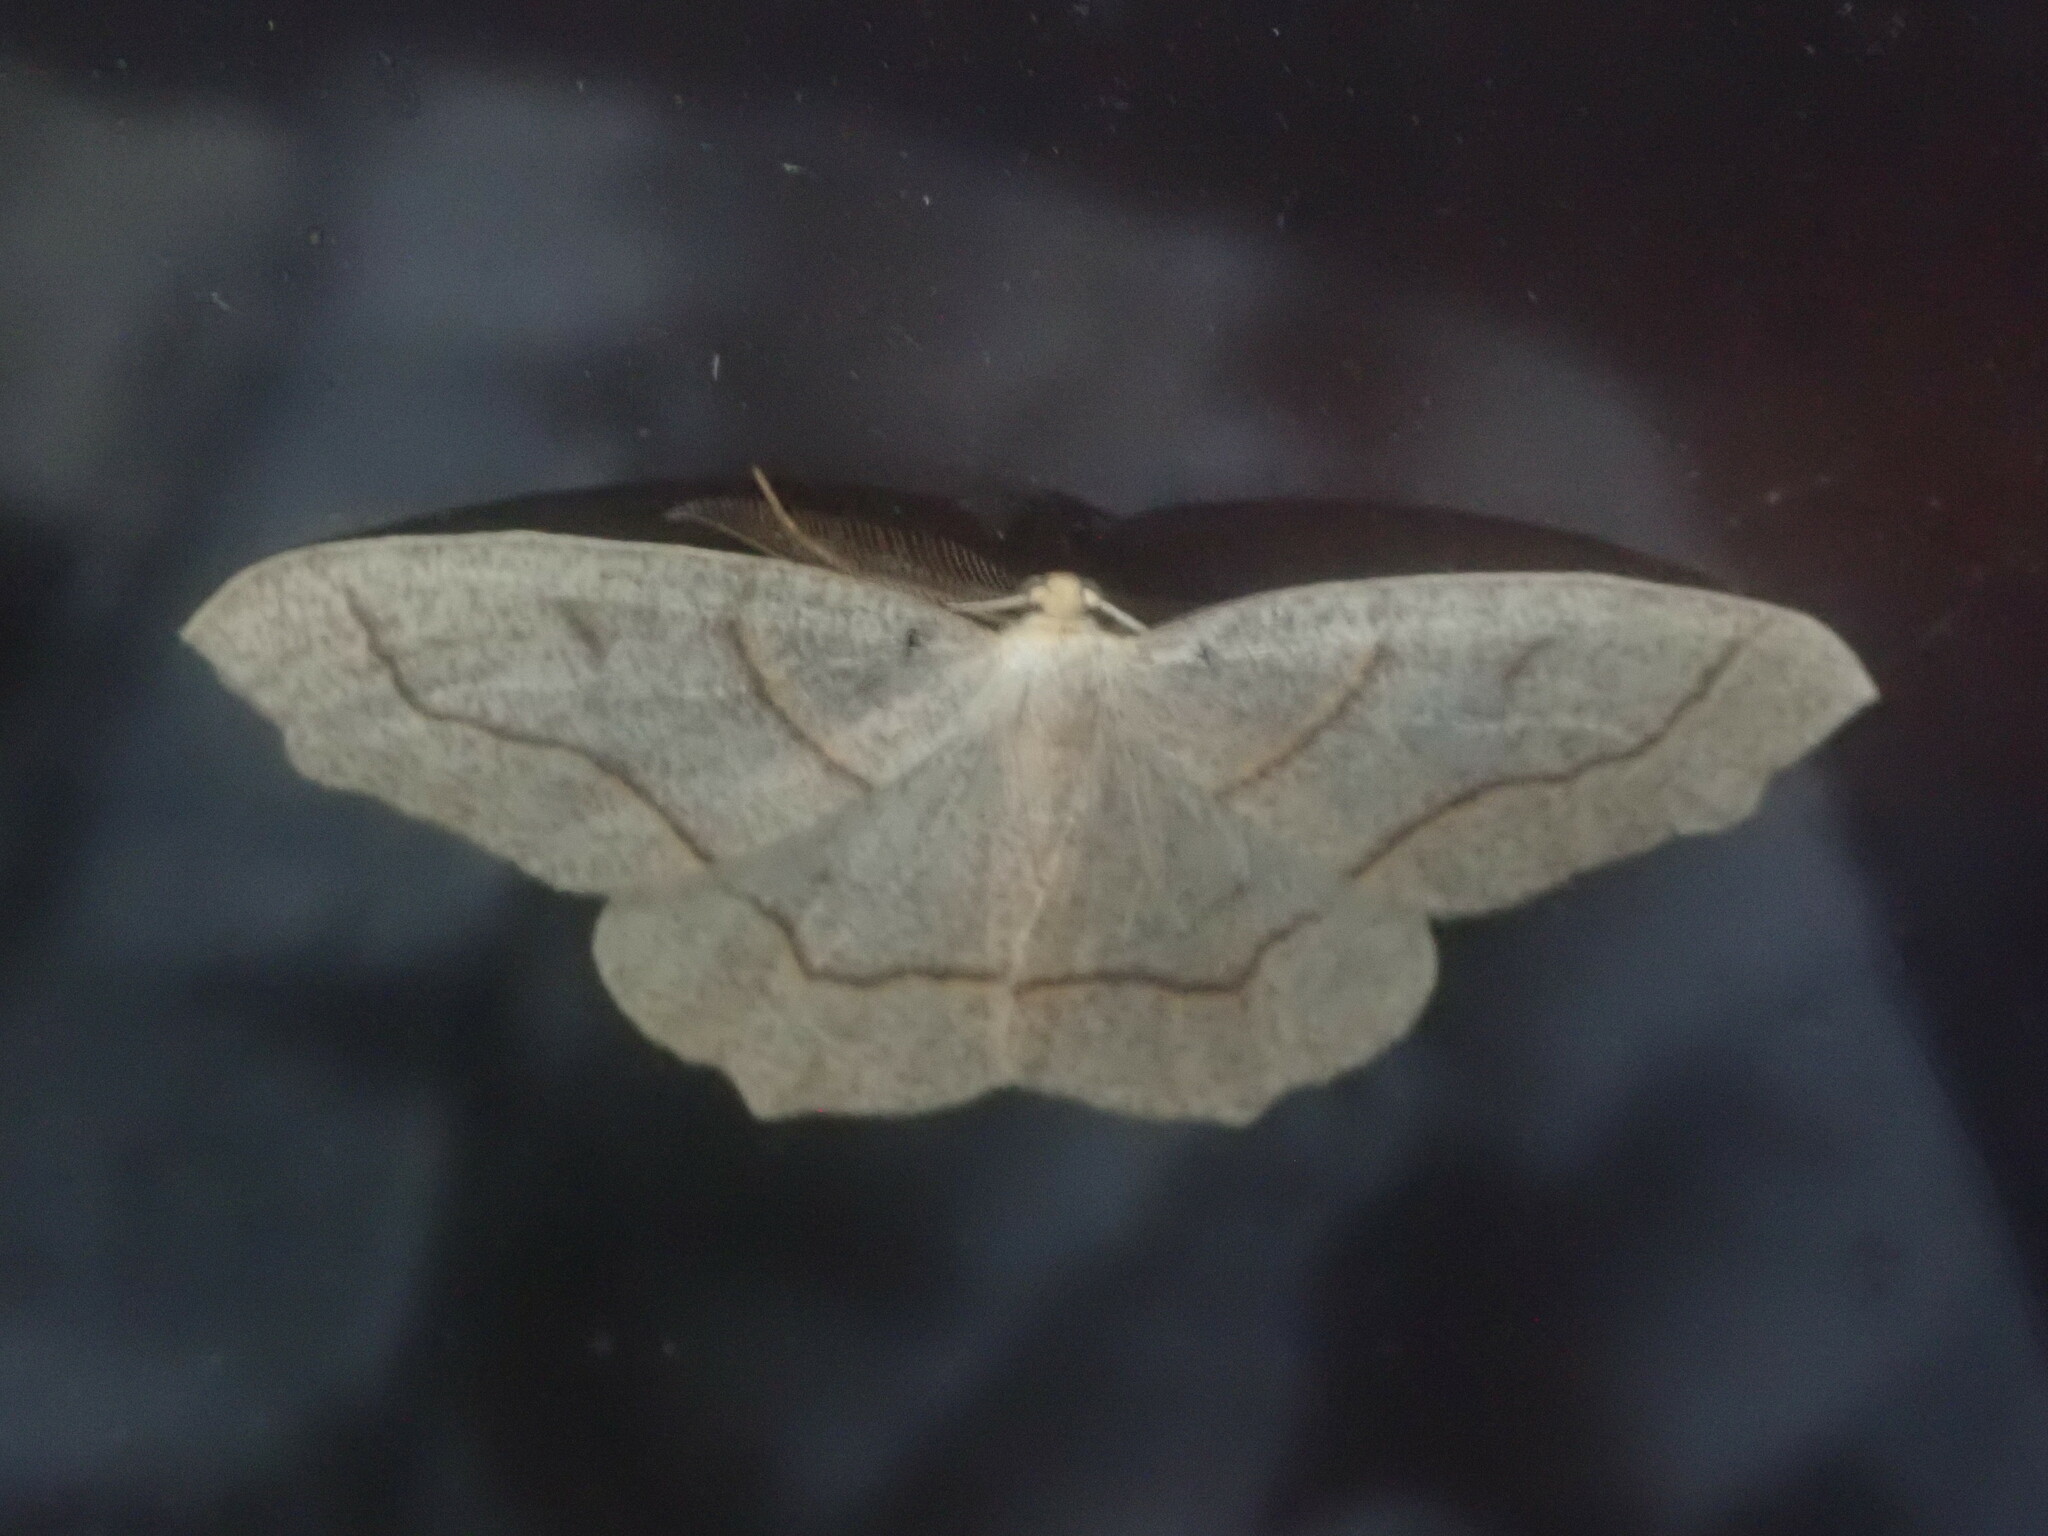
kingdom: Animalia
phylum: Arthropoda
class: Insecta
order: Lepidoptera
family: Geometridae
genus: Lambdina
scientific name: Lambdina fiscellaria
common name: Hemlock looper
